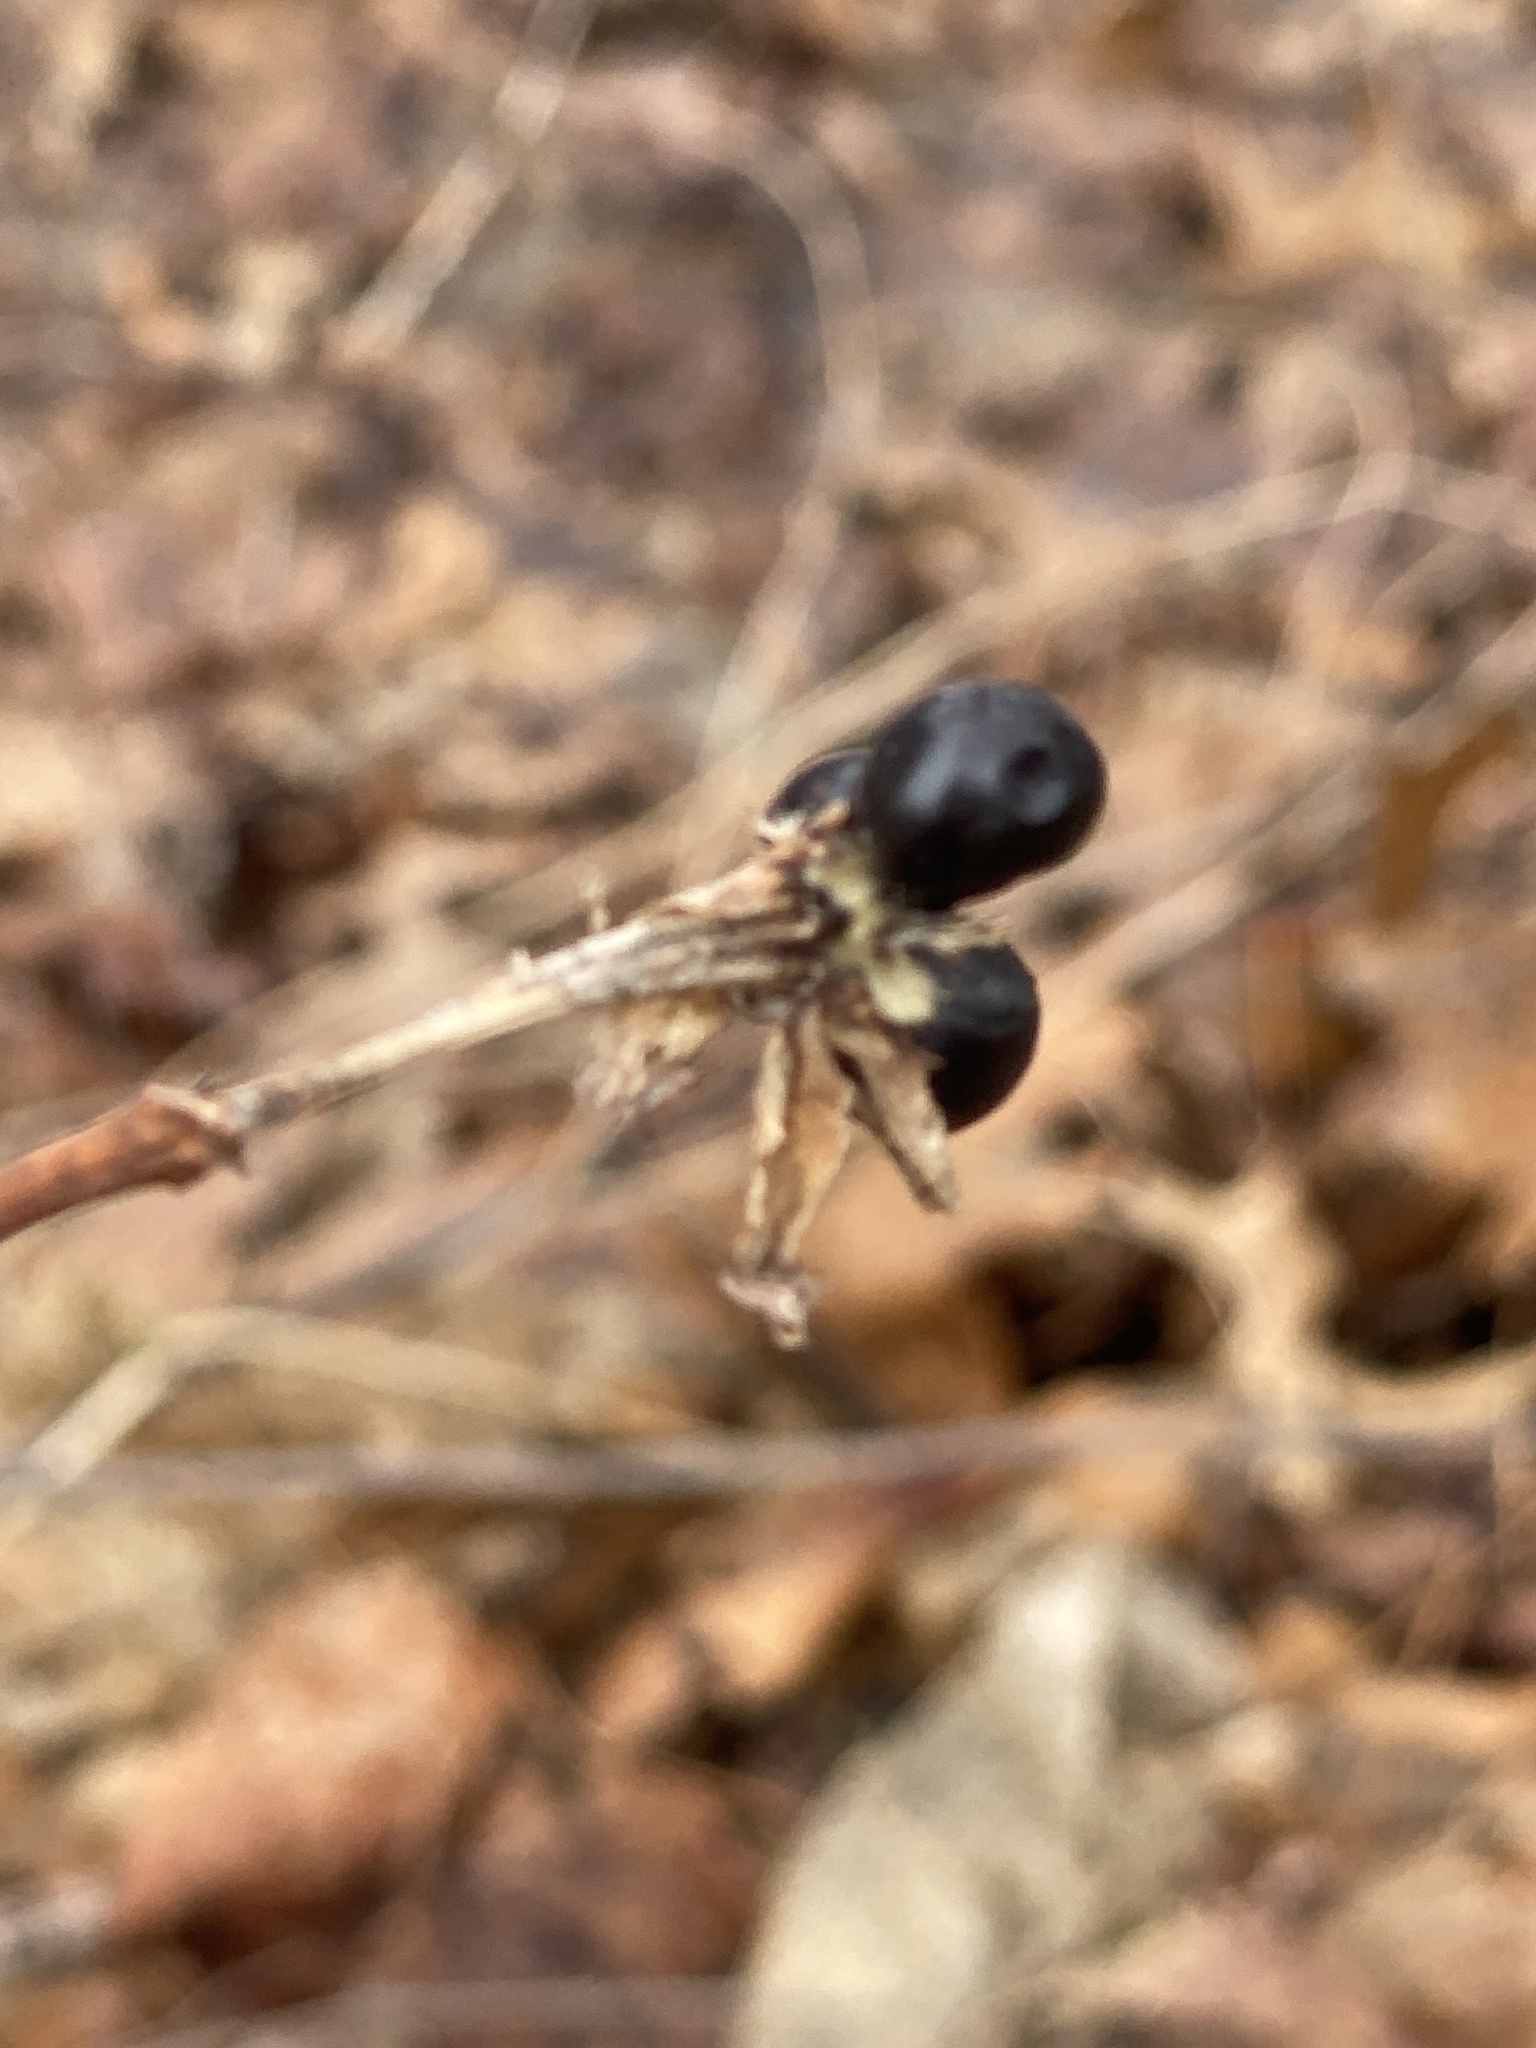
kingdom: Plantae
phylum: Tracheophyta
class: Magnoliopsida
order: Rosales
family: Rosaceae
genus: Rhodotypos
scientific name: Rhodotypos scandens
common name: Jetbead
